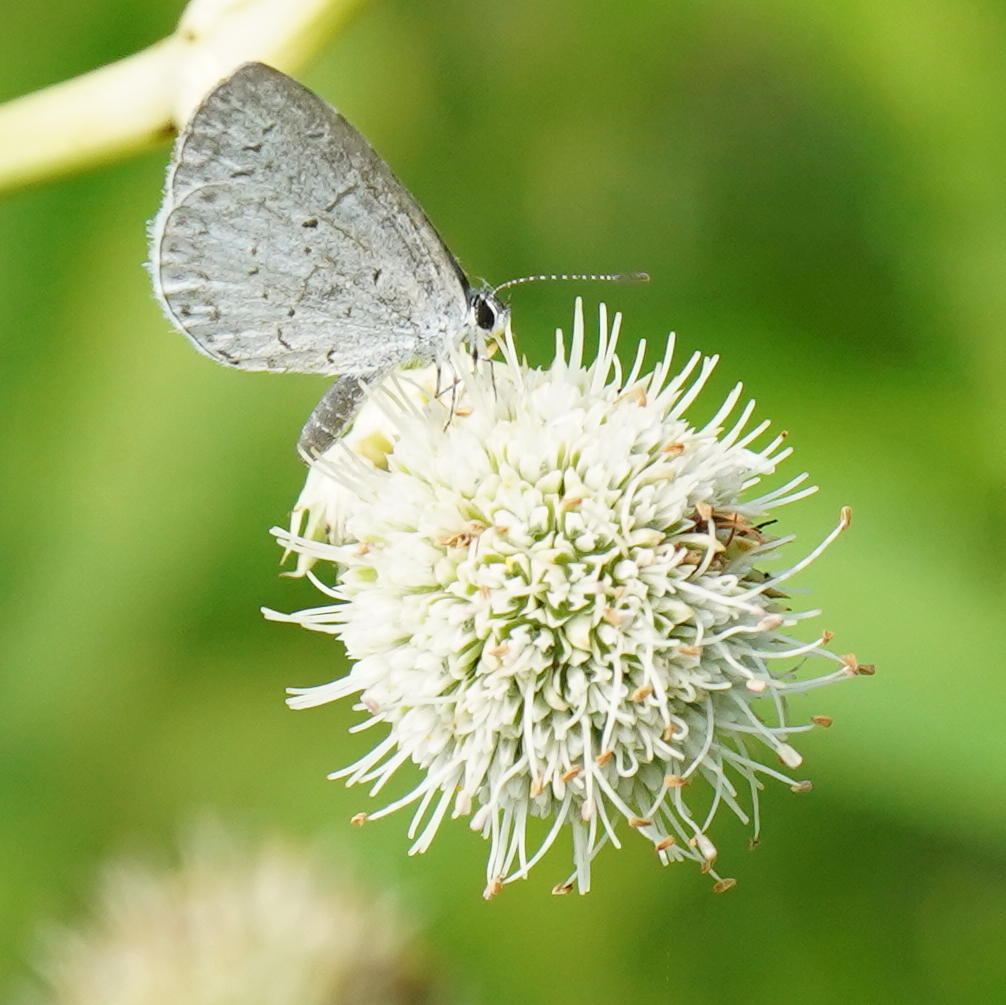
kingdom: Animalia
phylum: Arthropoda
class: Insecta
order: Lepidoptera
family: Lycaenidae
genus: Cyaniris
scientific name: Cyaniris neglecta
